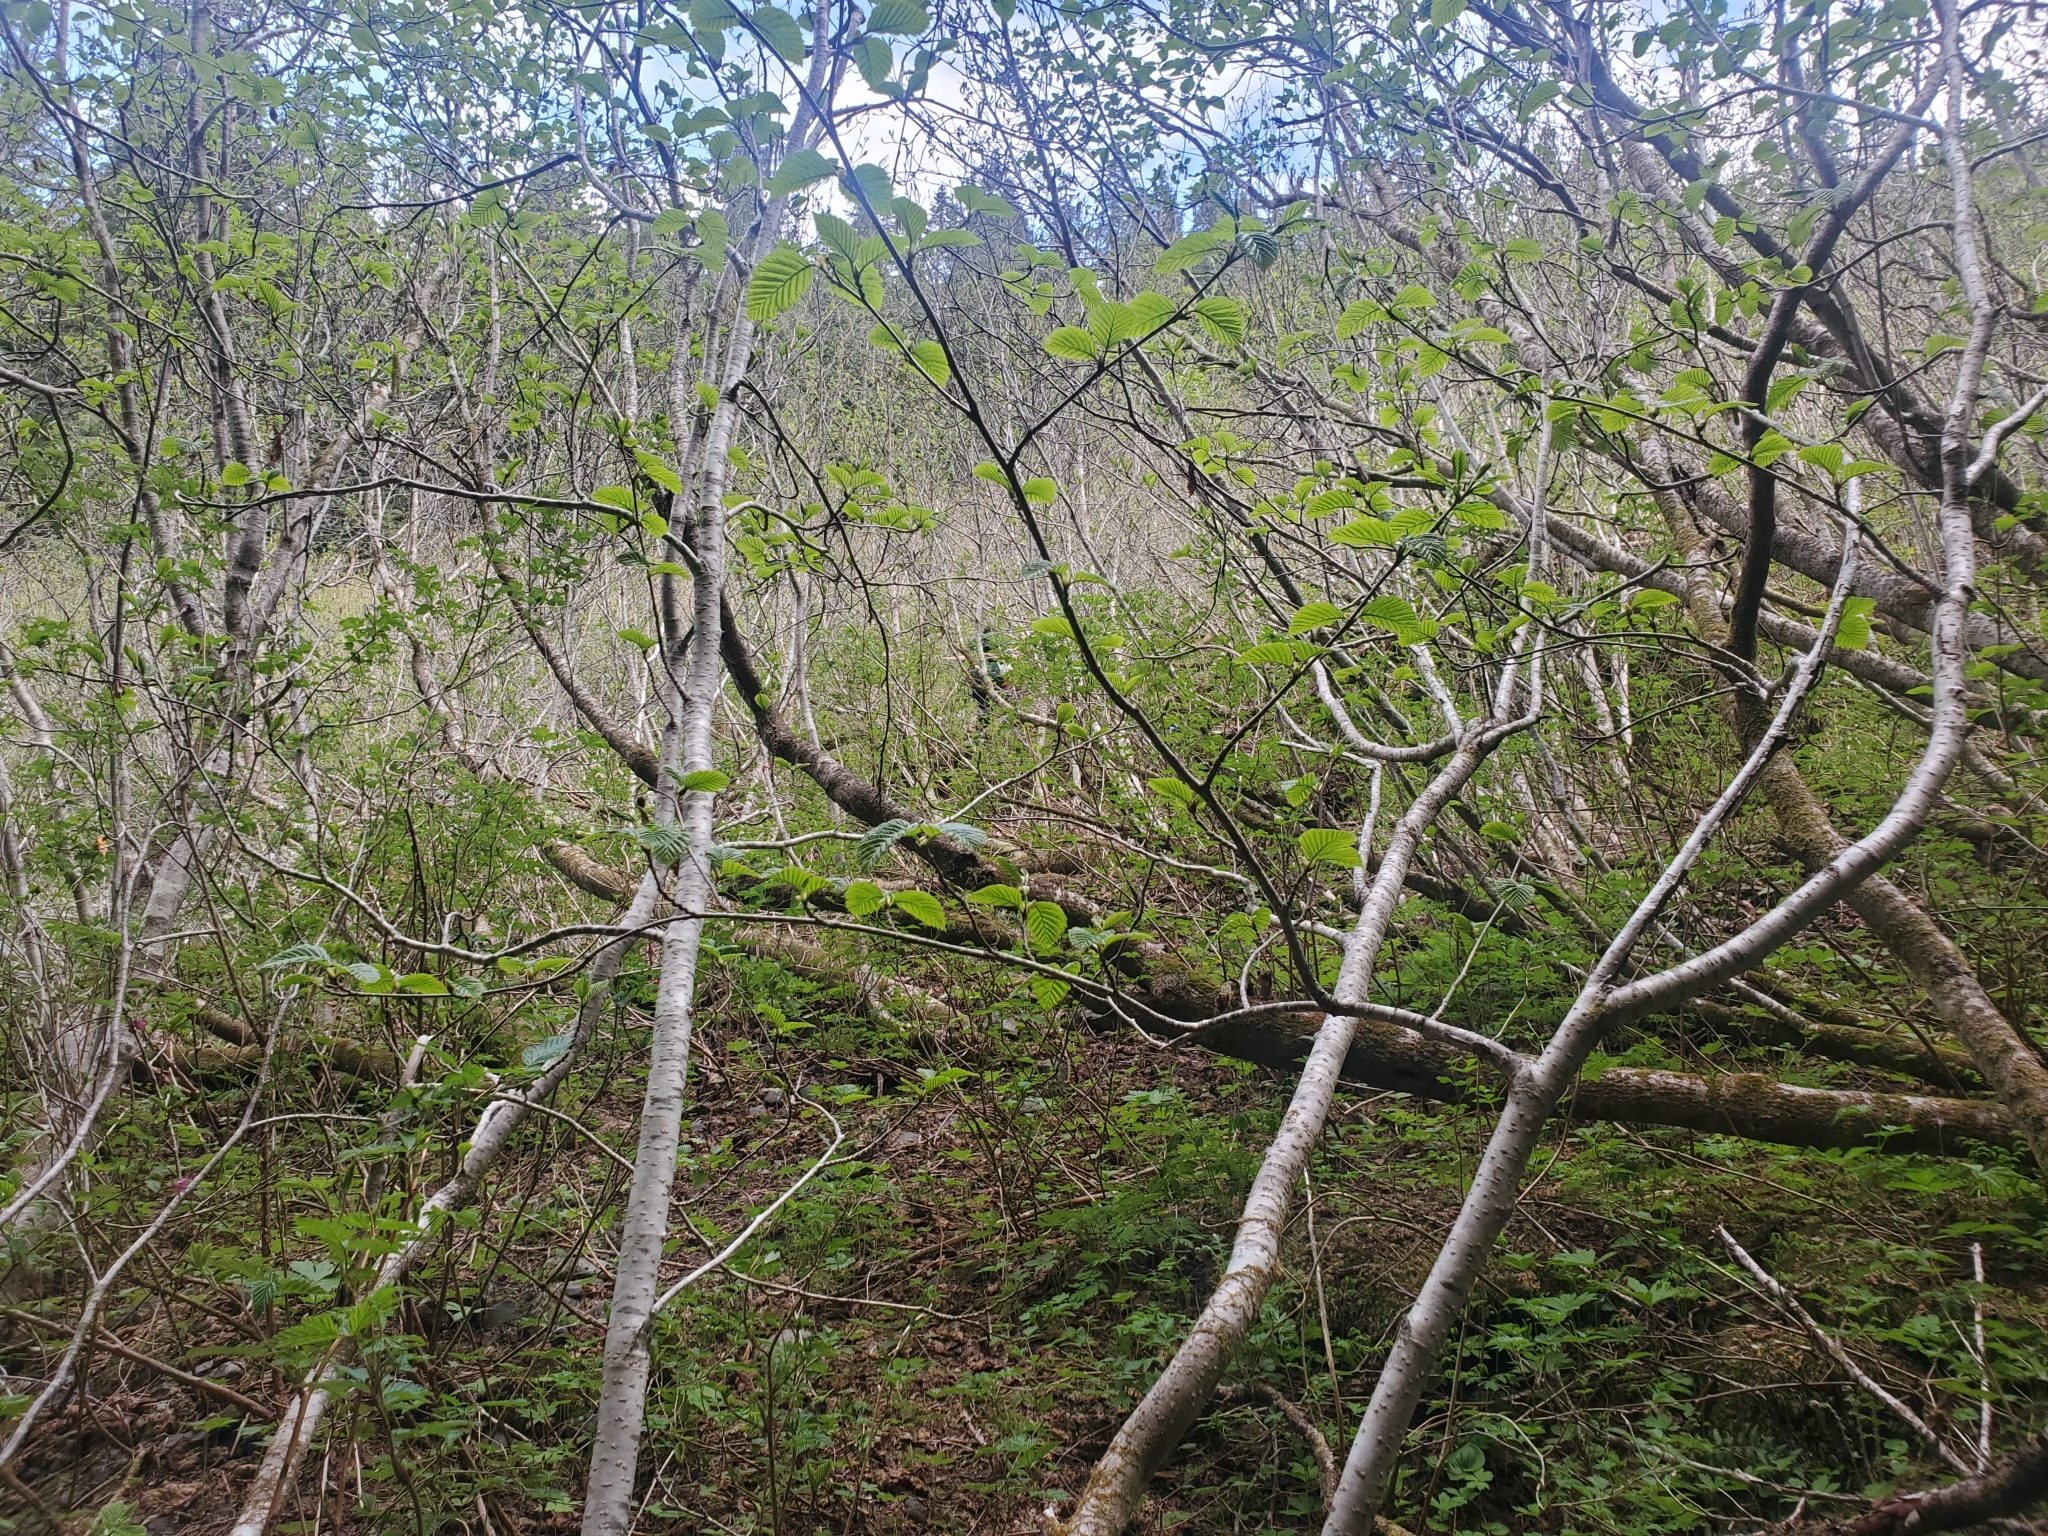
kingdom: Plantae
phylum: Tracheophyta
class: Magnoliopsida
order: Fagales
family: Betulaceae
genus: Alnus
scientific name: Alnus alnobetula
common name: Green alder
